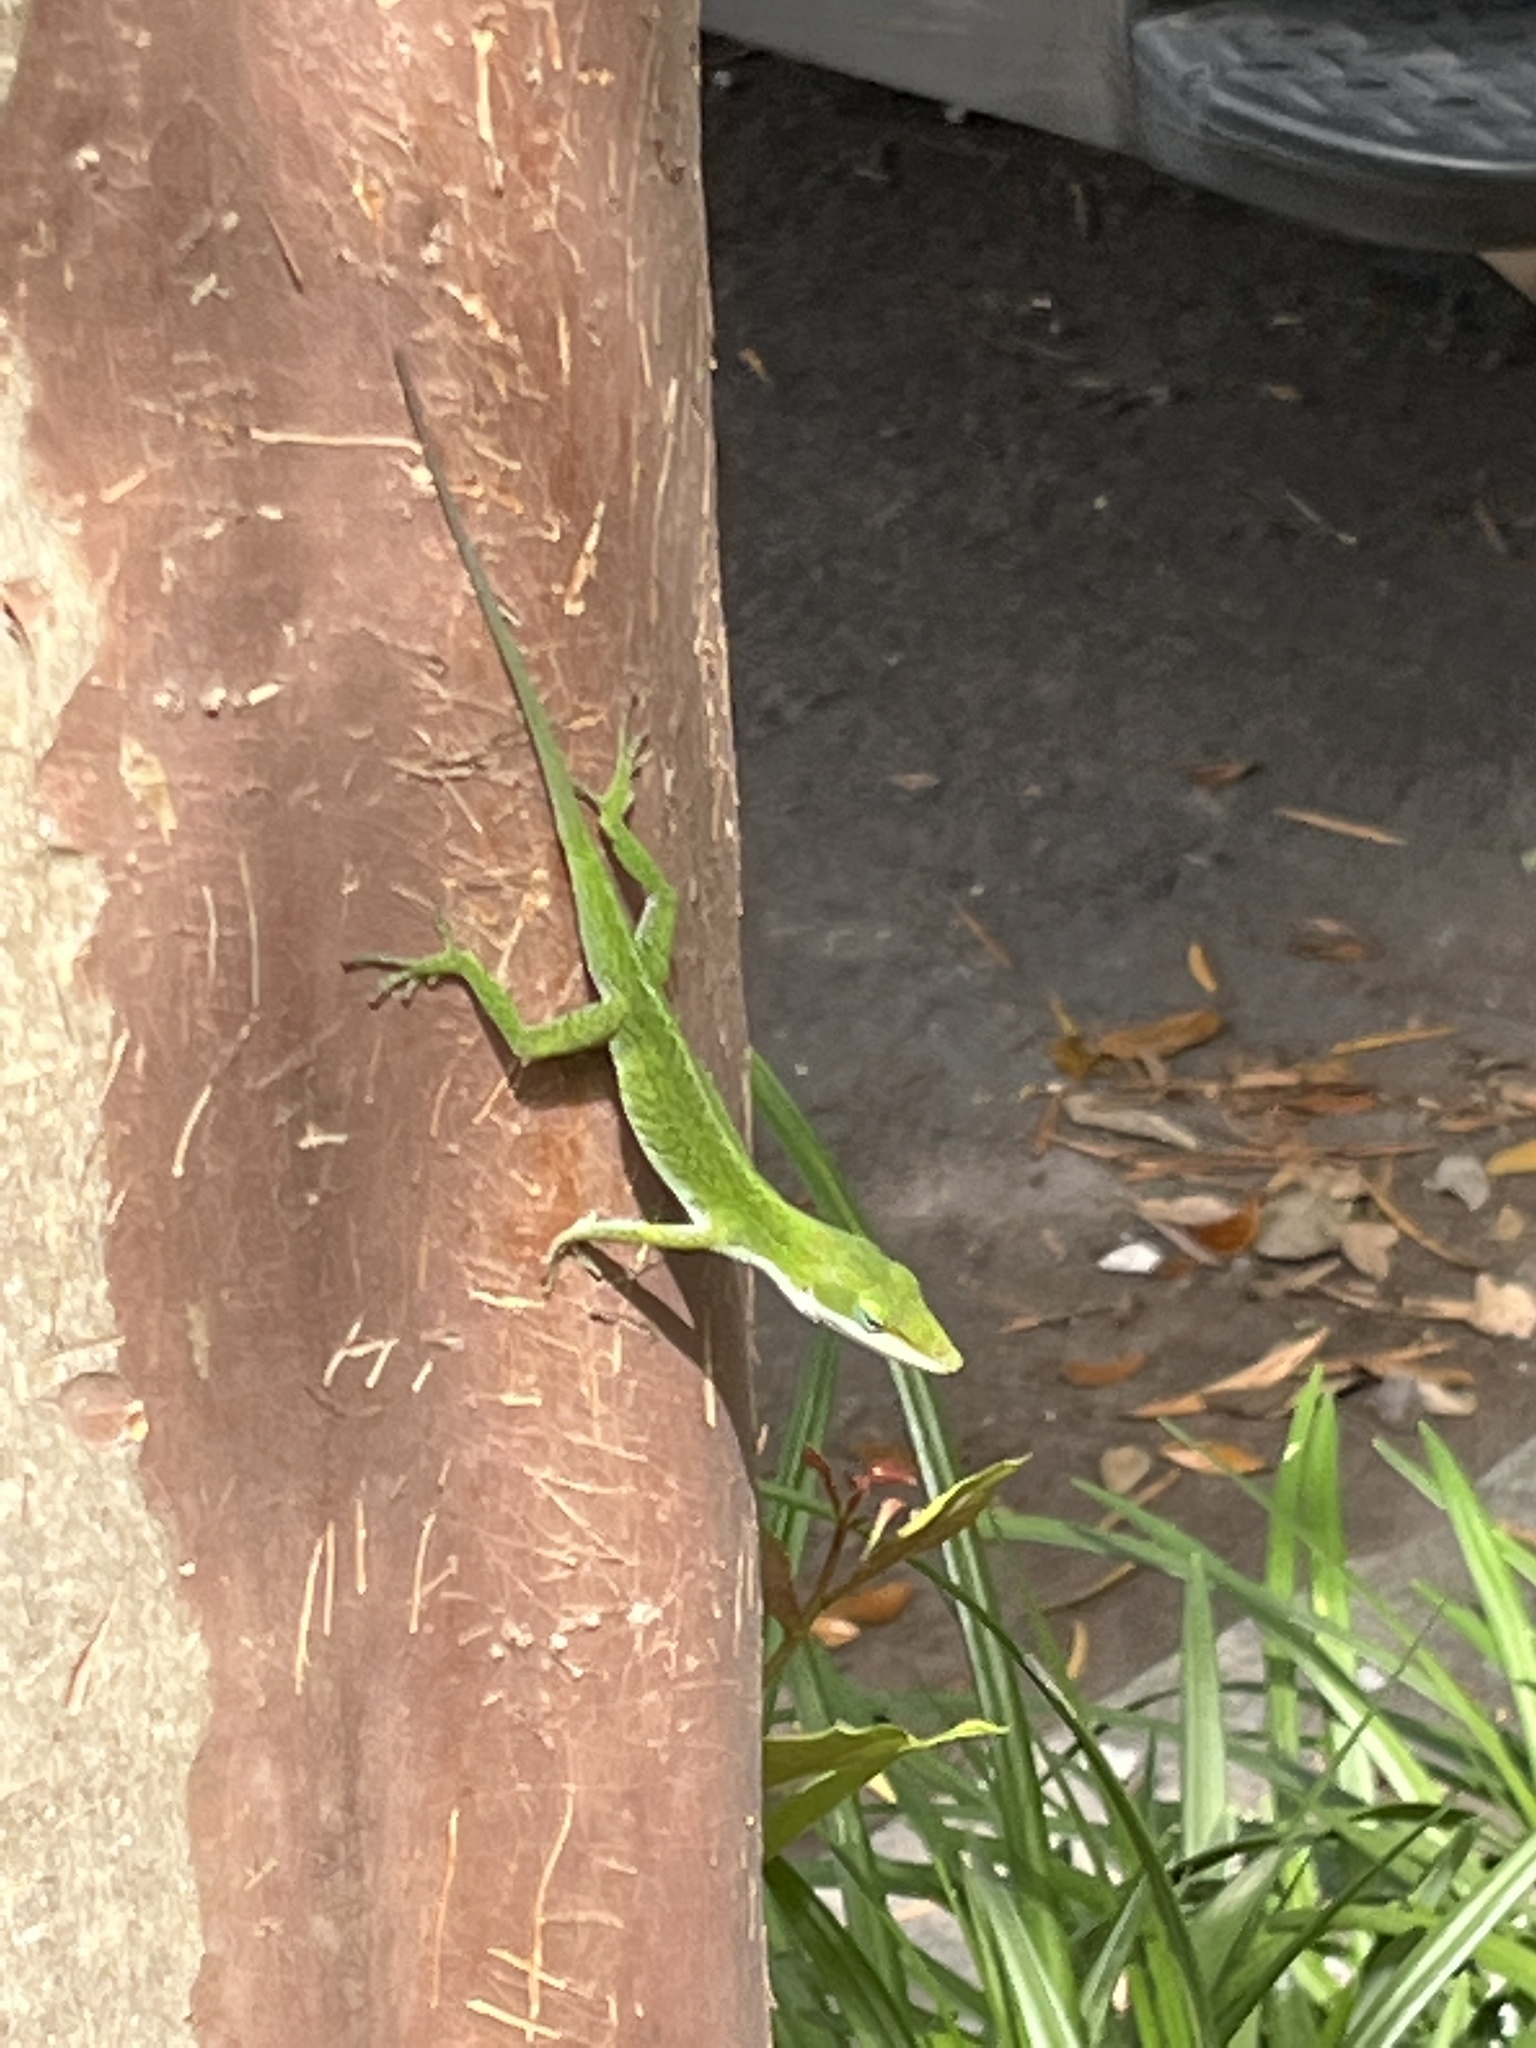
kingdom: Animalia
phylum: Chordata
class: Squamata
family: Dactyloidae
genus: Anolis
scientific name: Anolis carolinensis
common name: Green anole
